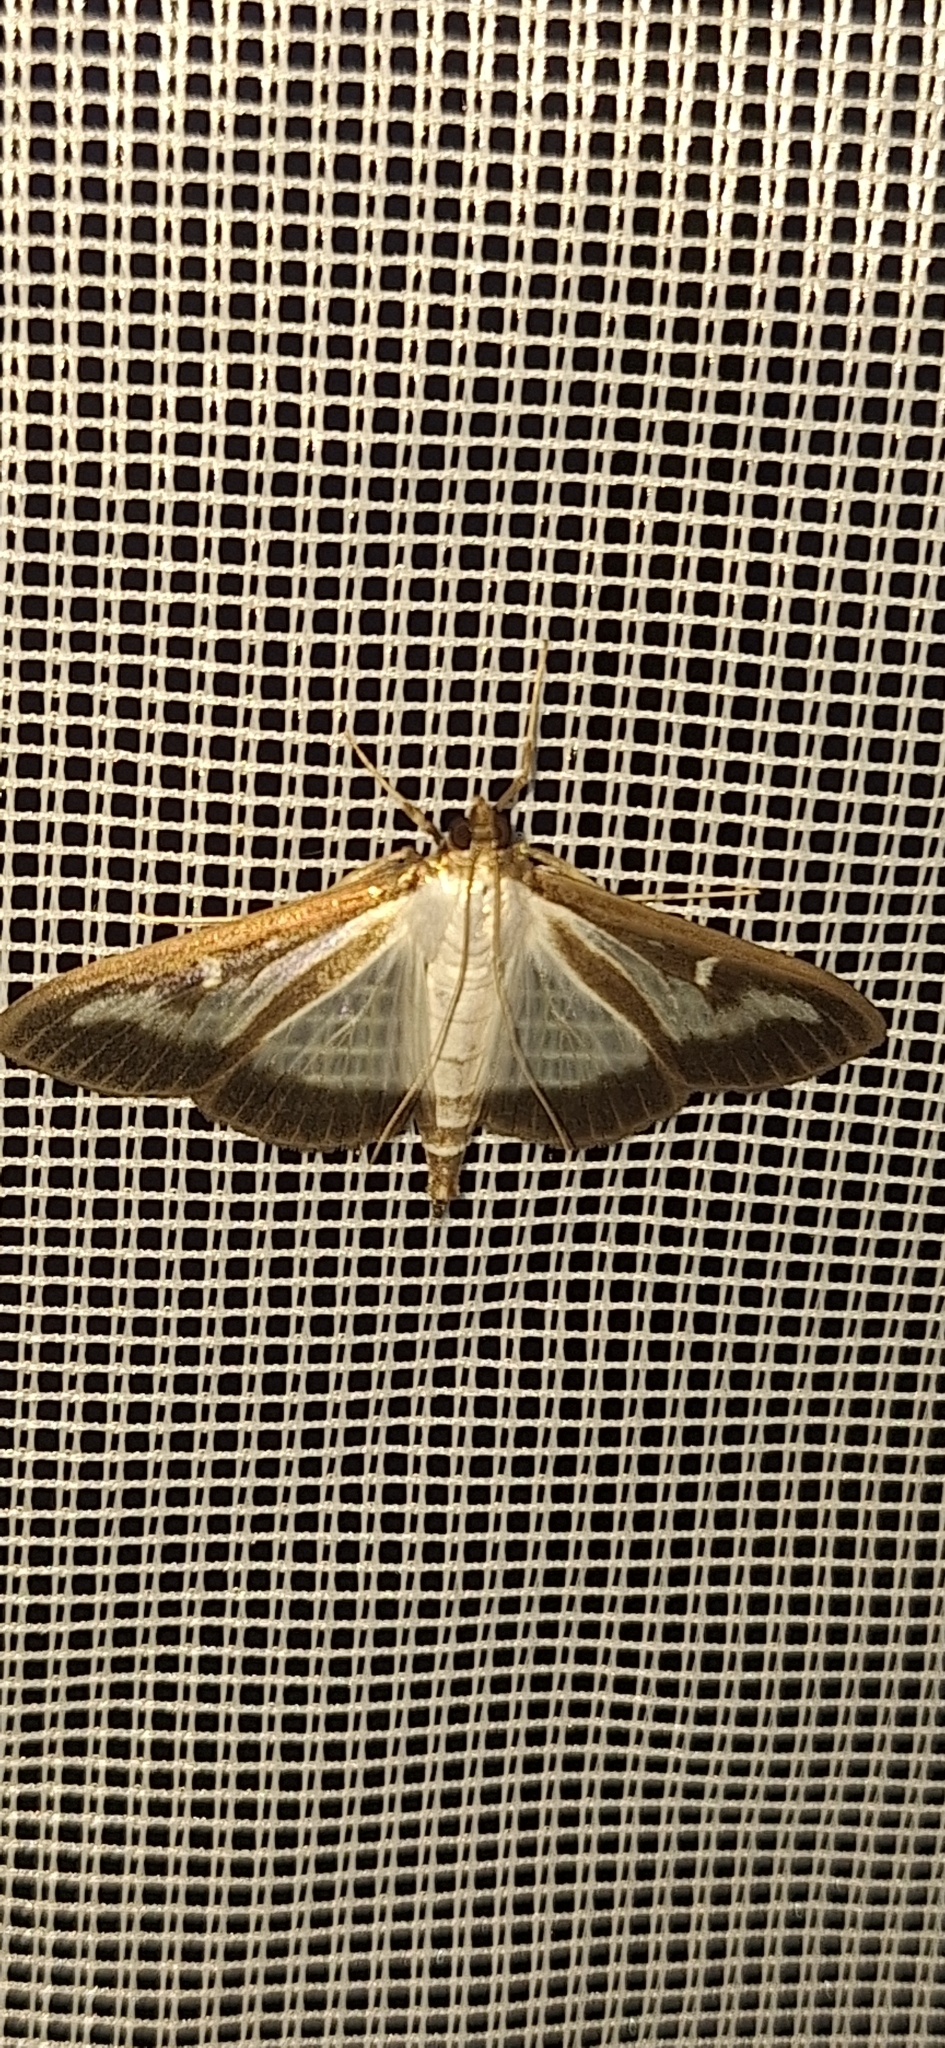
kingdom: Animalia
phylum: Arthropoda
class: Insecta
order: Lepidoptera
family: Crambidae
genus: Cydalima
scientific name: Cydalima perspectalis
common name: Box tree moth
